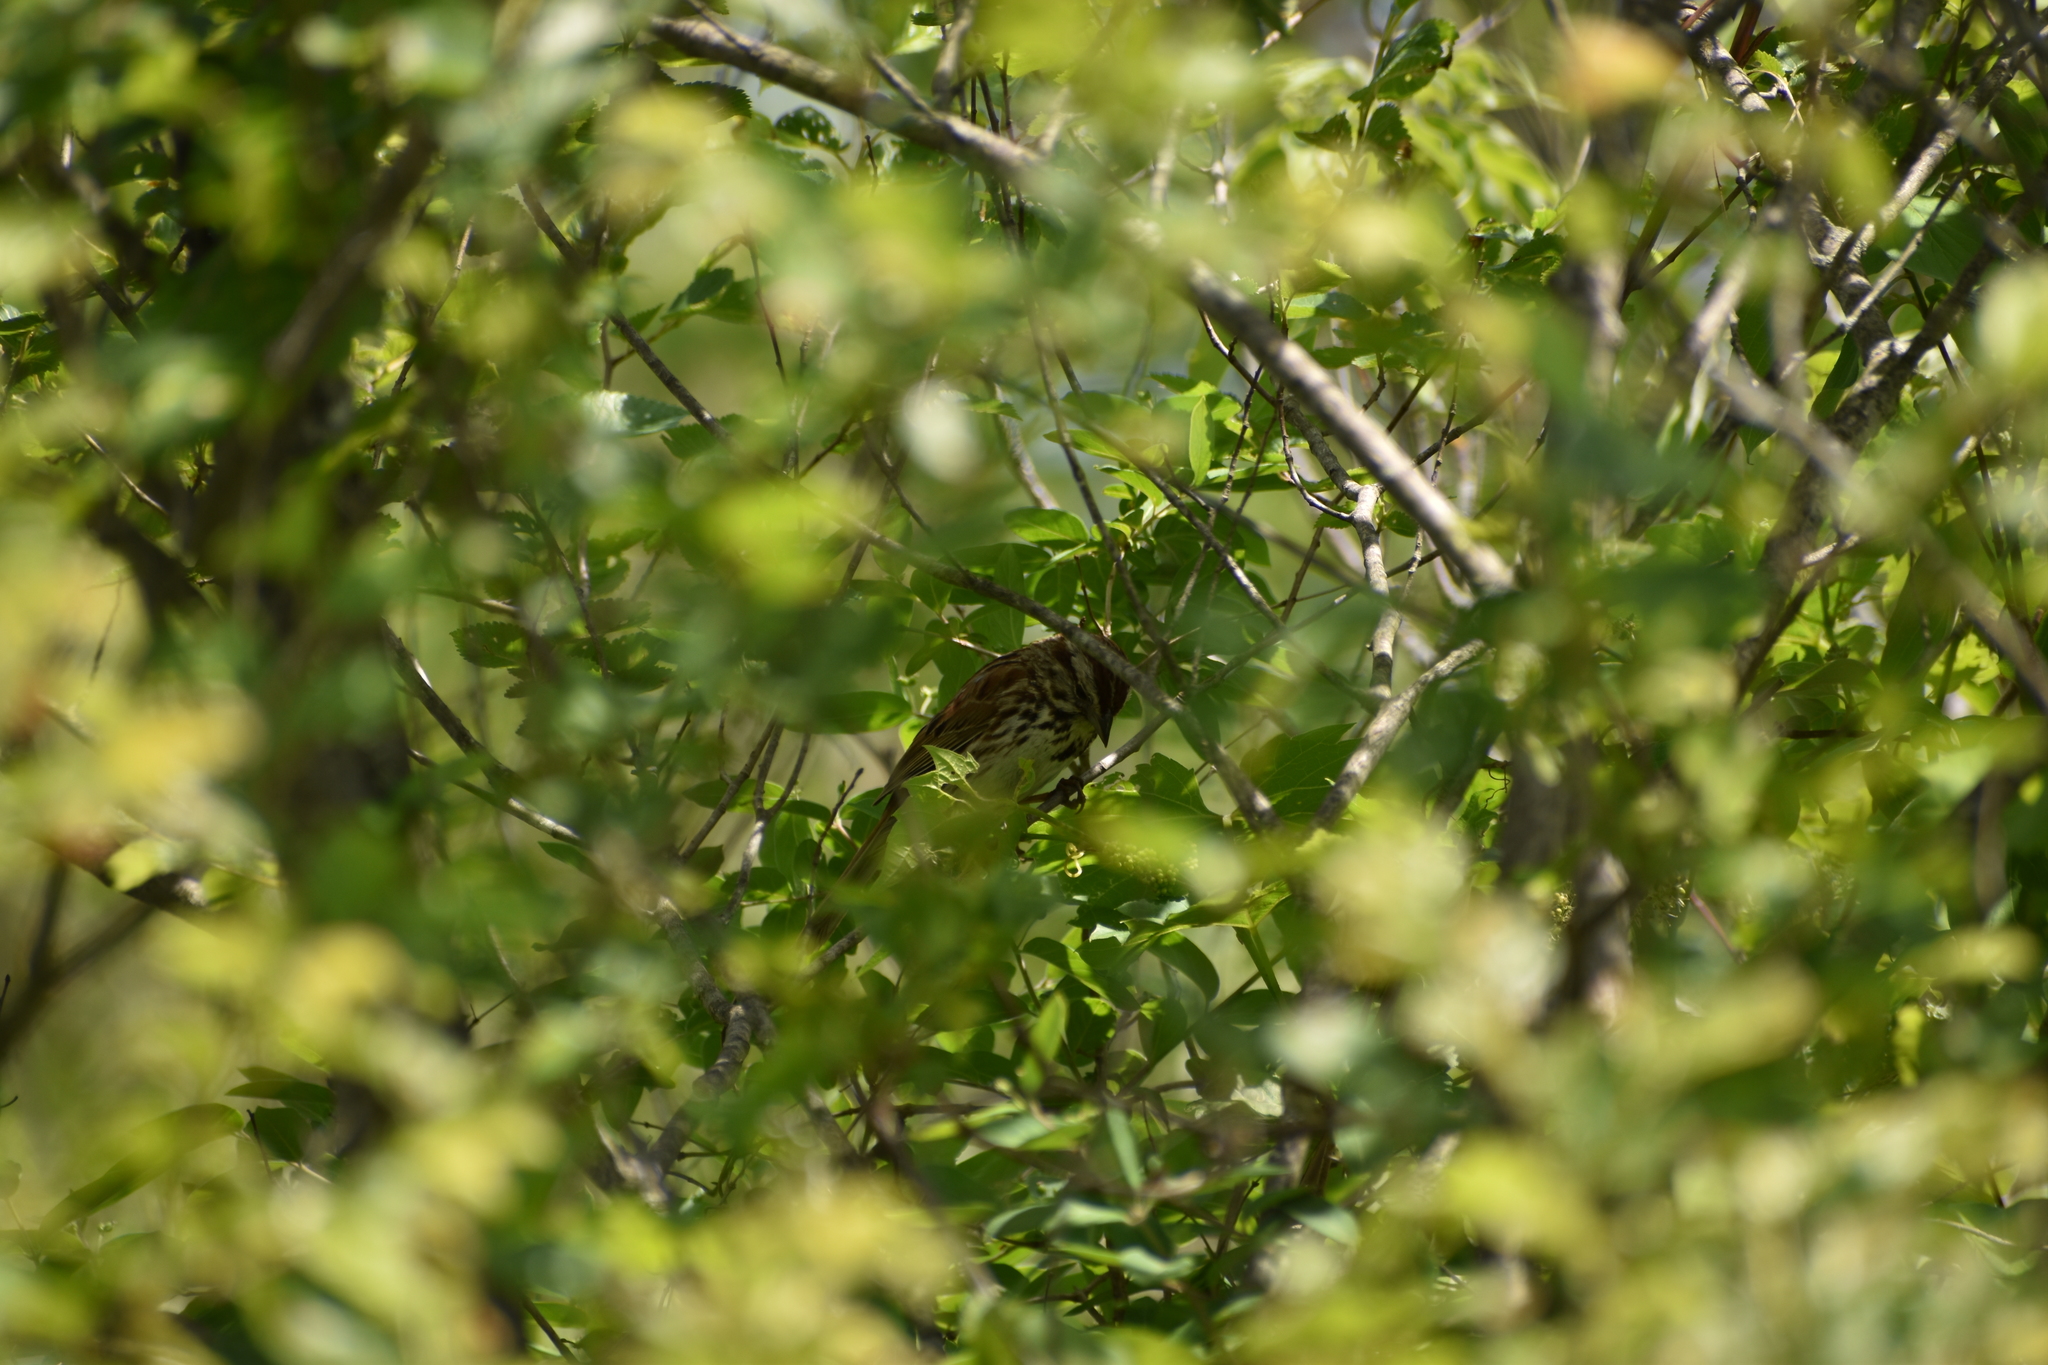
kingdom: Animalia
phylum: Chordata
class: Aves
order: Passeriformes
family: Passerellidae
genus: Melospiza
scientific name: Melospiza melodia
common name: Song sparrow
